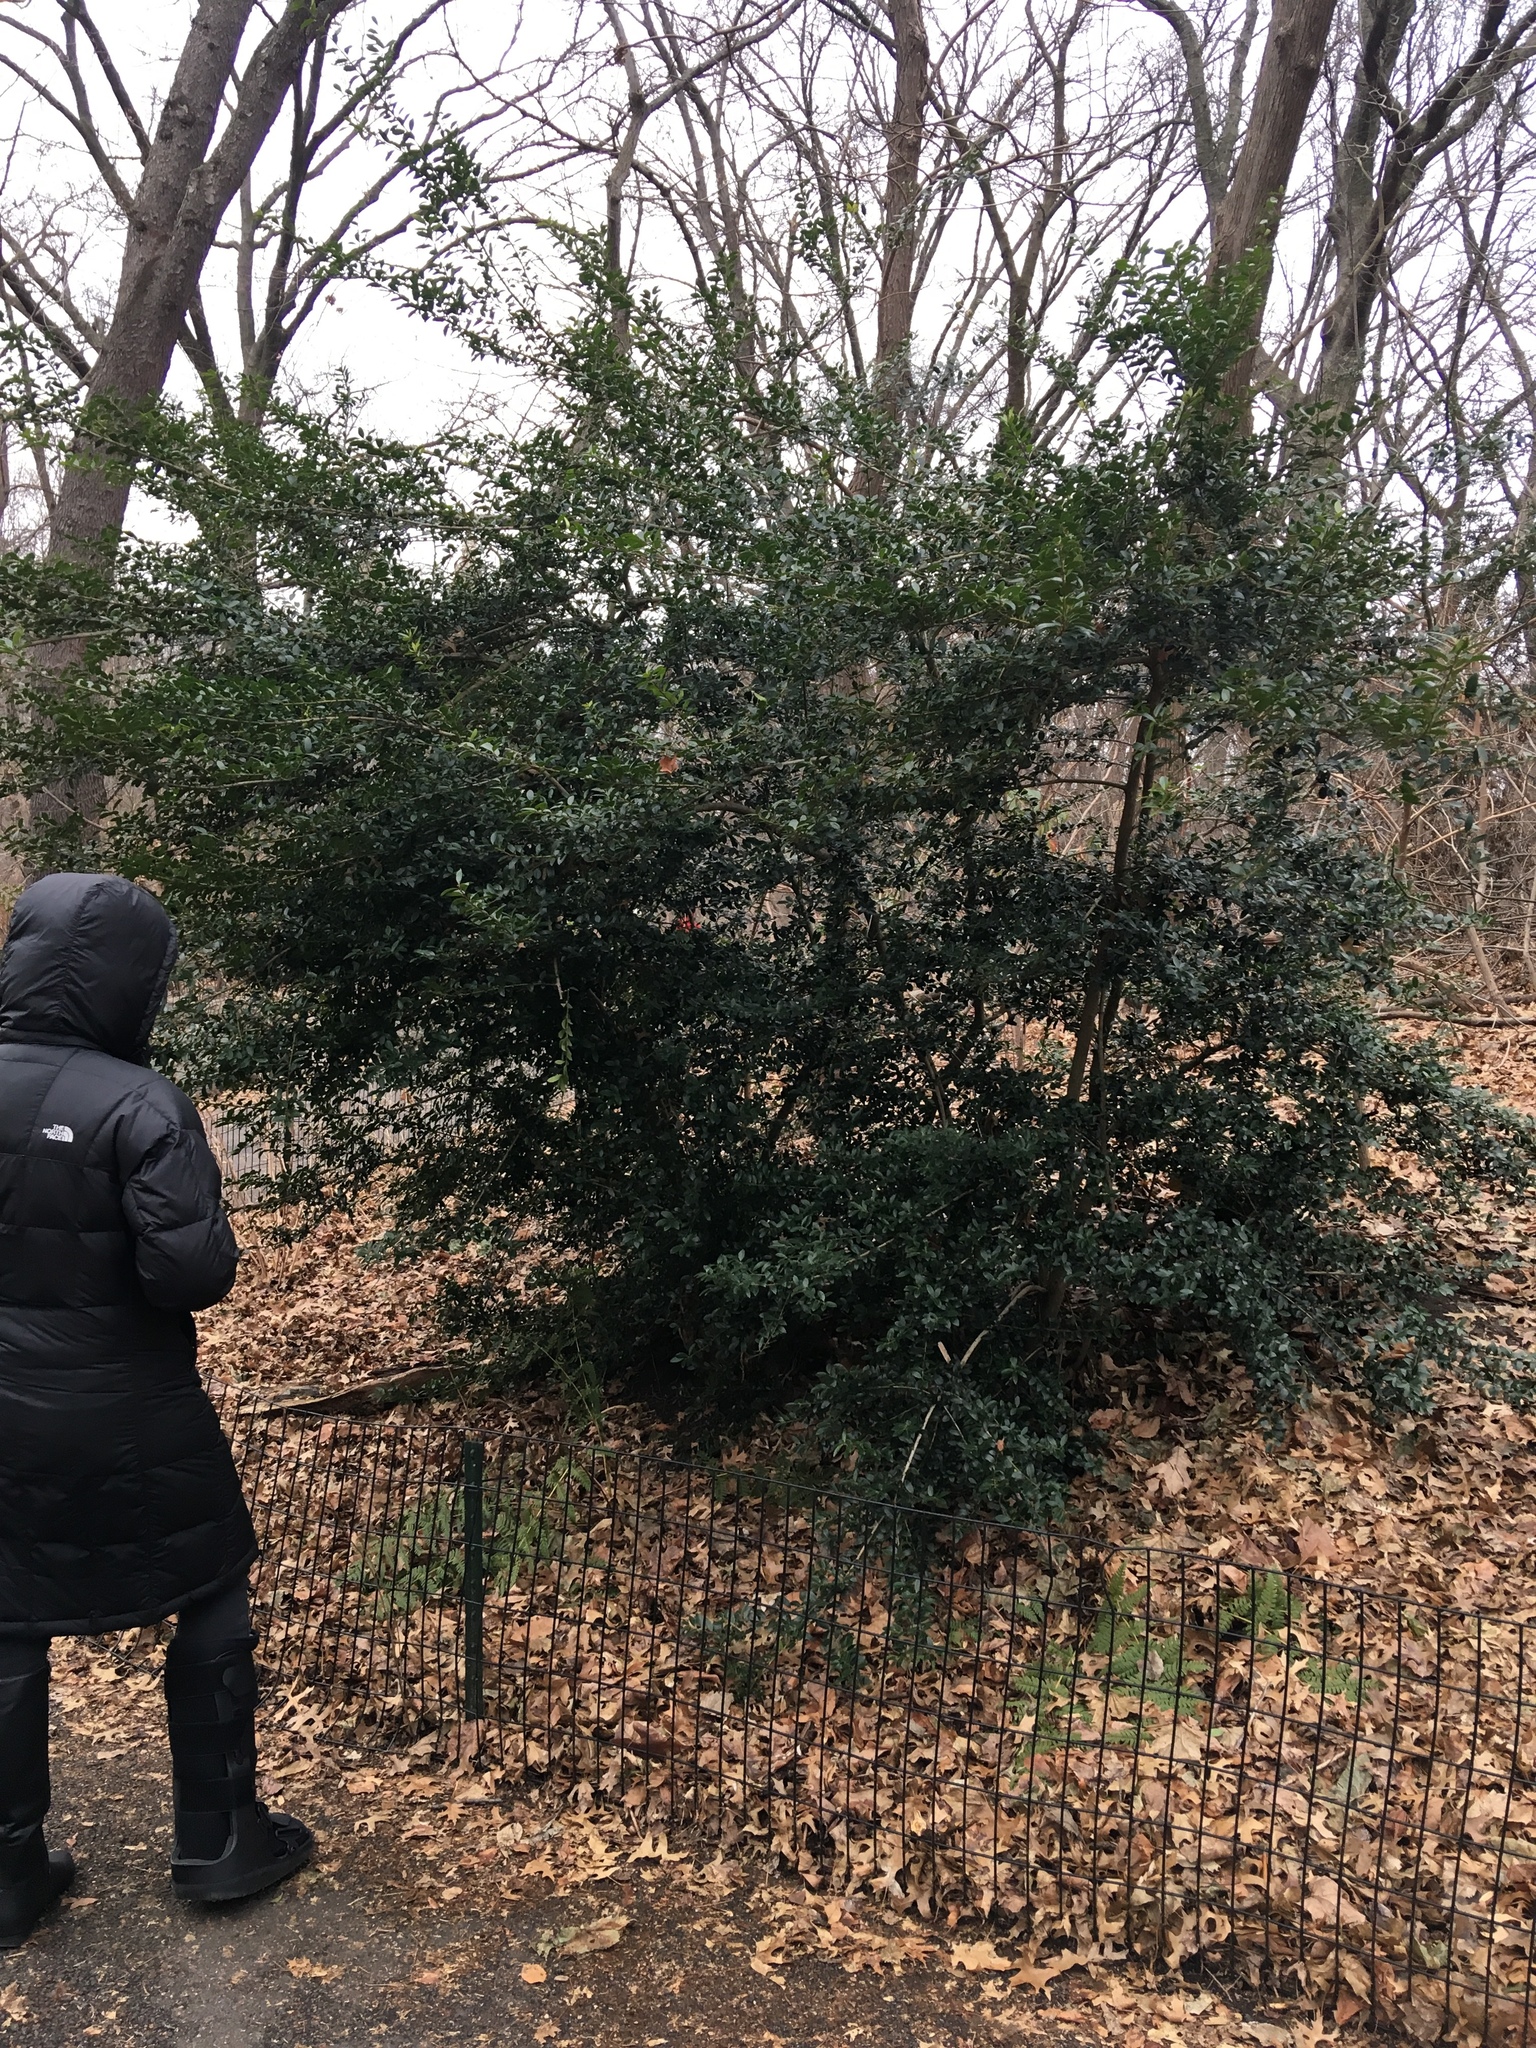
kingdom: Plantae
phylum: Tracheophyta
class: Magnoliopsida
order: Aquifoliales
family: Aquifoliaceae
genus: Ilex
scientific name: Ilex crenata
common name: Japanese holly
